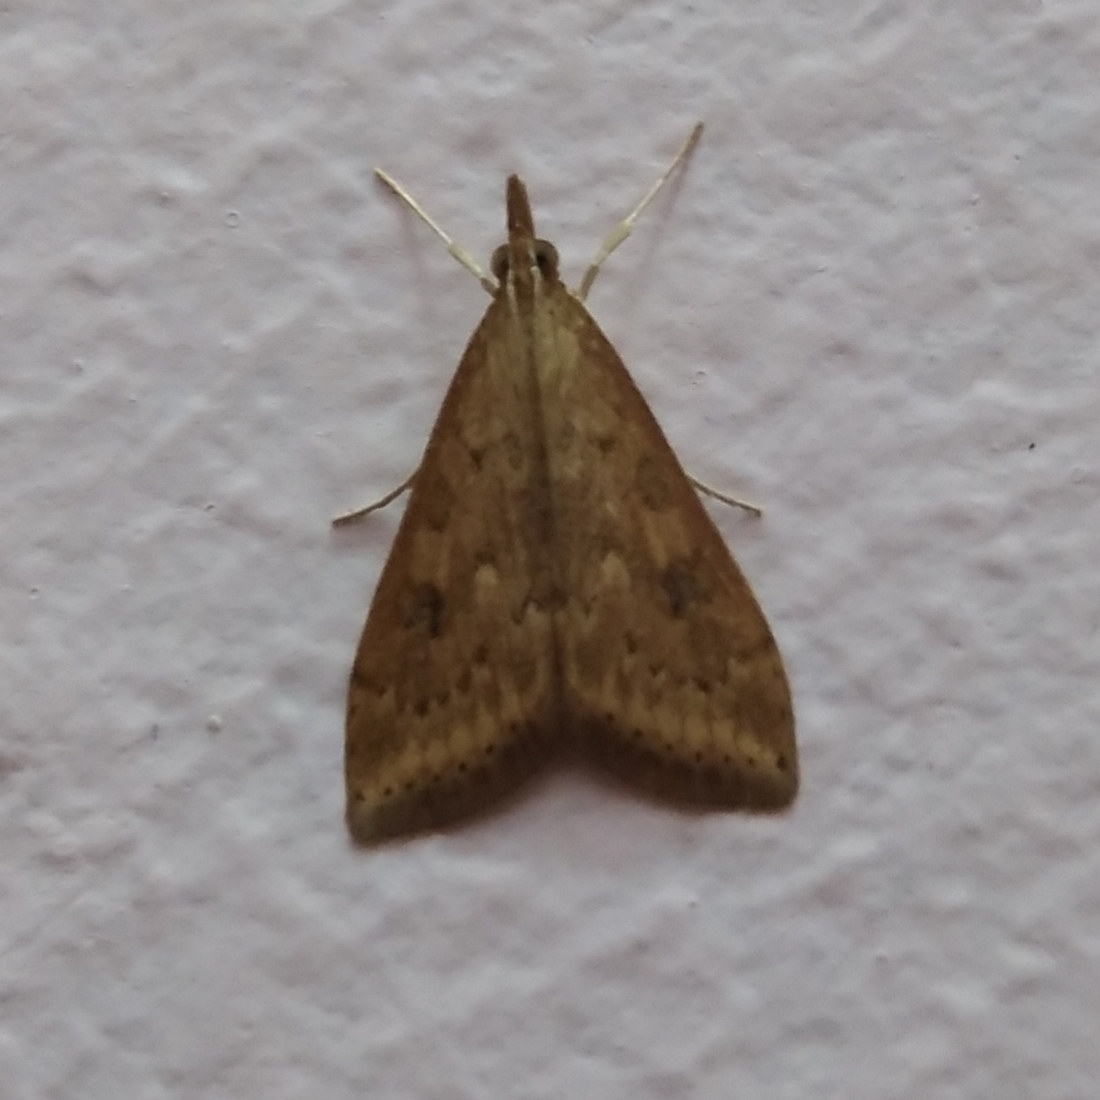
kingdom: Animalia
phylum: Arthropoda
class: Insecta
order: Lepidoptera
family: Crambidae
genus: Udea
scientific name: Udea ferrugalis
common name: Rusty dot
